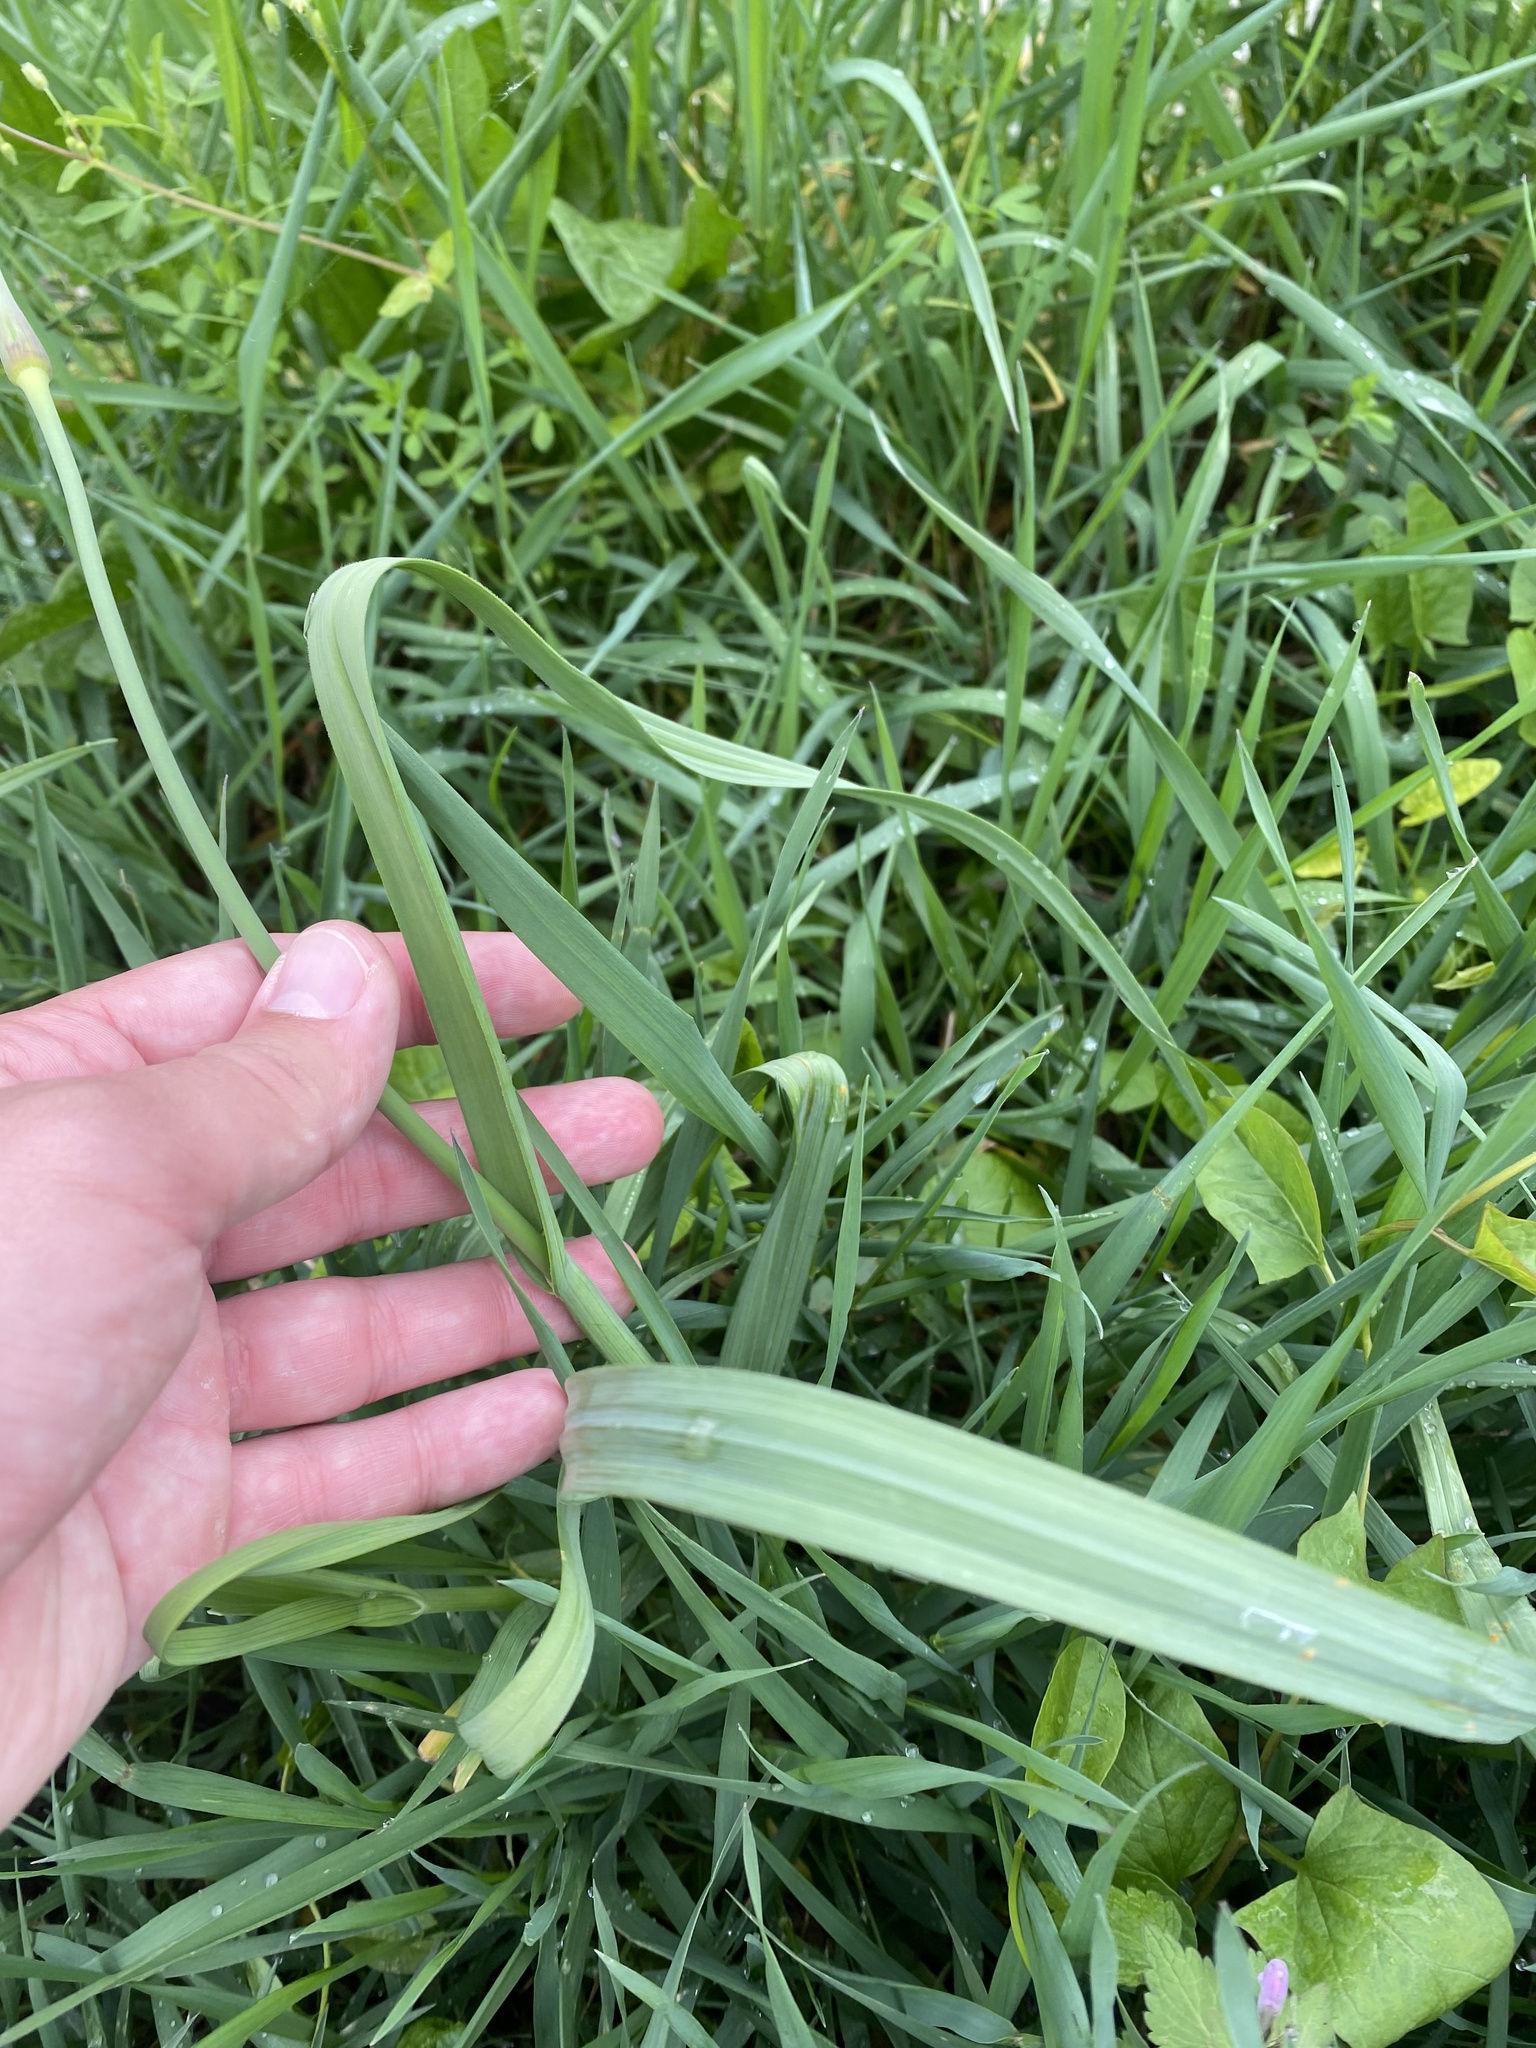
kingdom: Plantae
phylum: Tracheophyta
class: Liliopsida
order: Asparagales
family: Amaryllidaceae
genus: Allium
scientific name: Allium sativum
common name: Garlic
